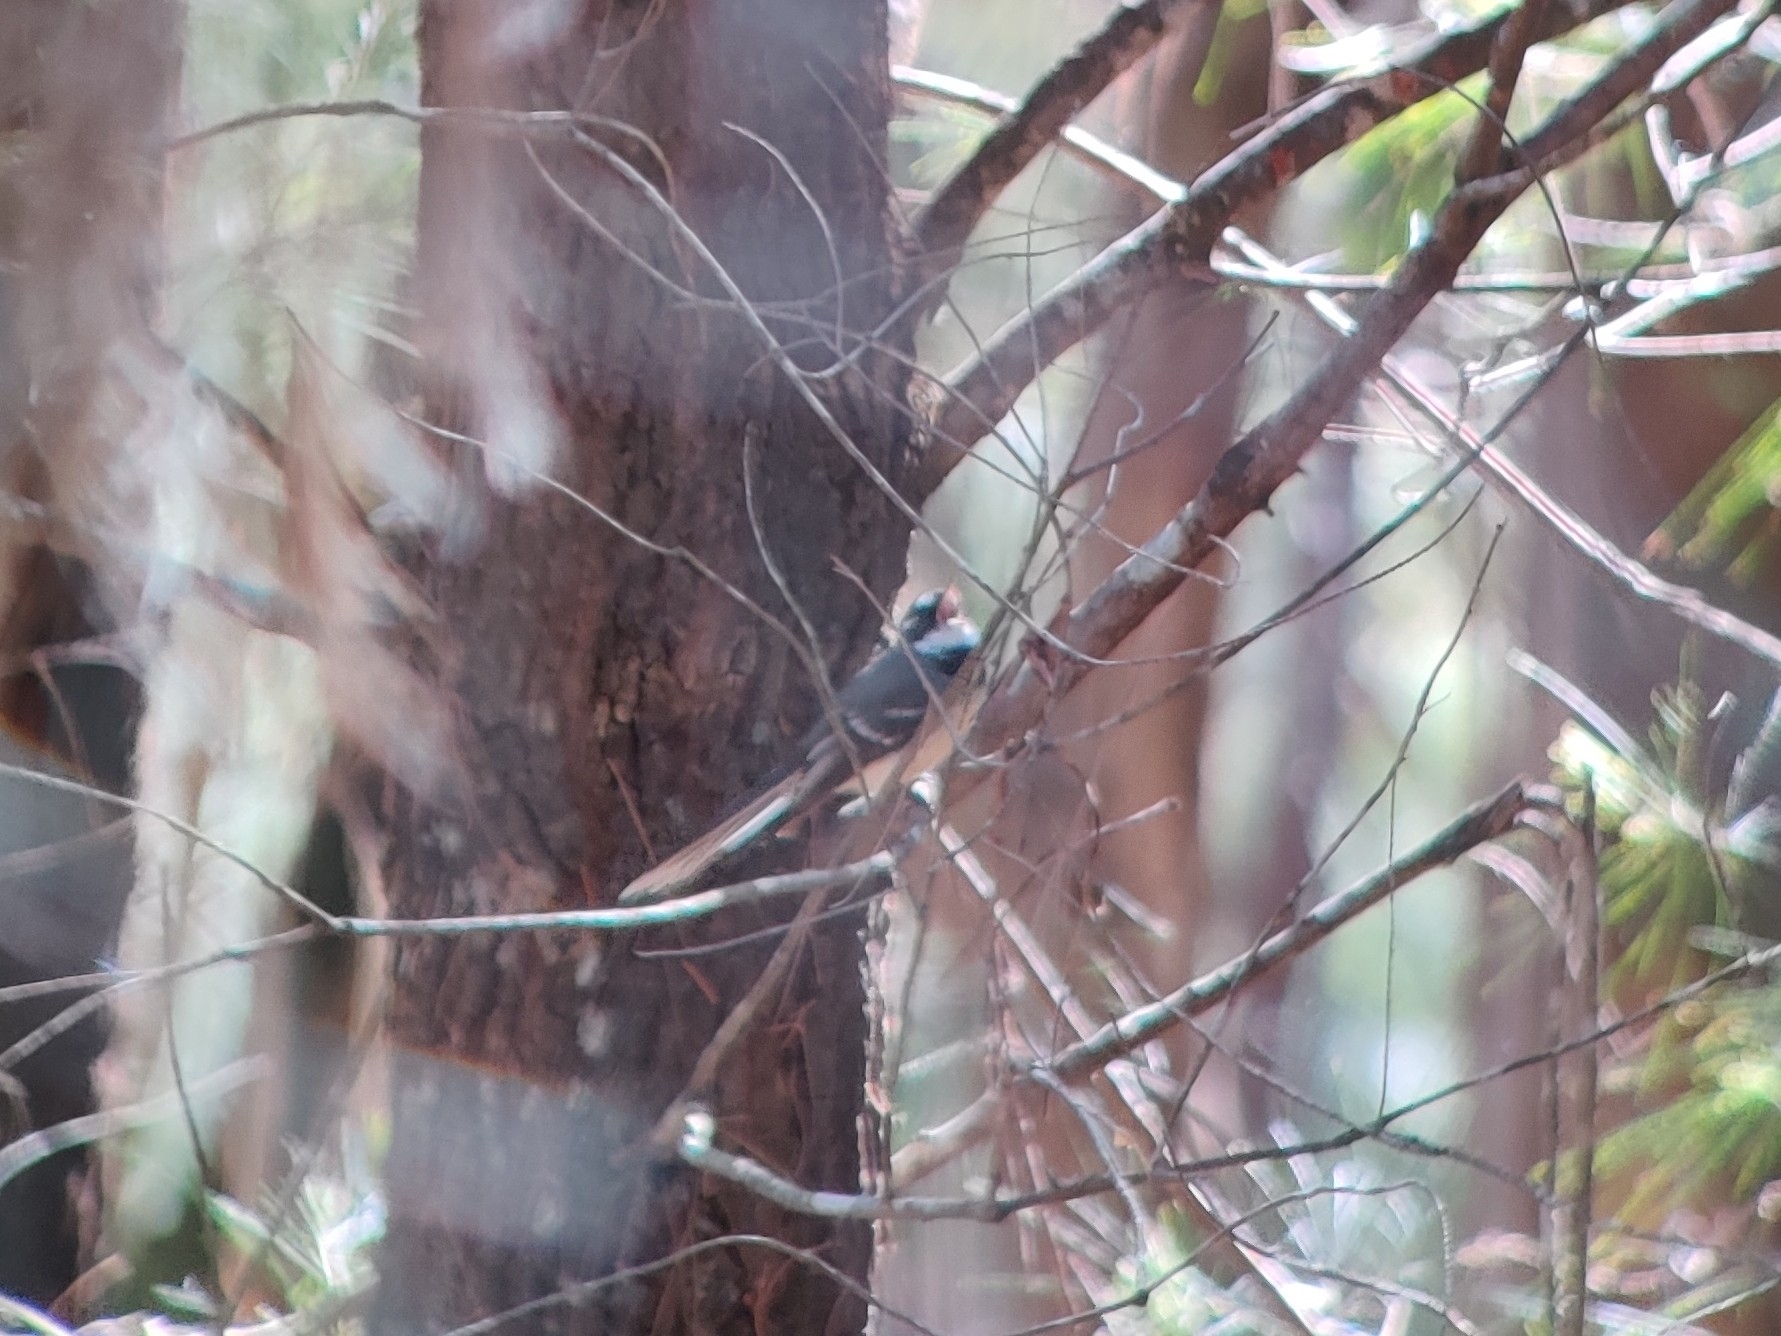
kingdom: Animalia
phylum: Chordata
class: Aves
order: Passeriformes
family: Rhipiduridae
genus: Rhipidura
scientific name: Rhipidura albiscapa
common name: Grey fantail
